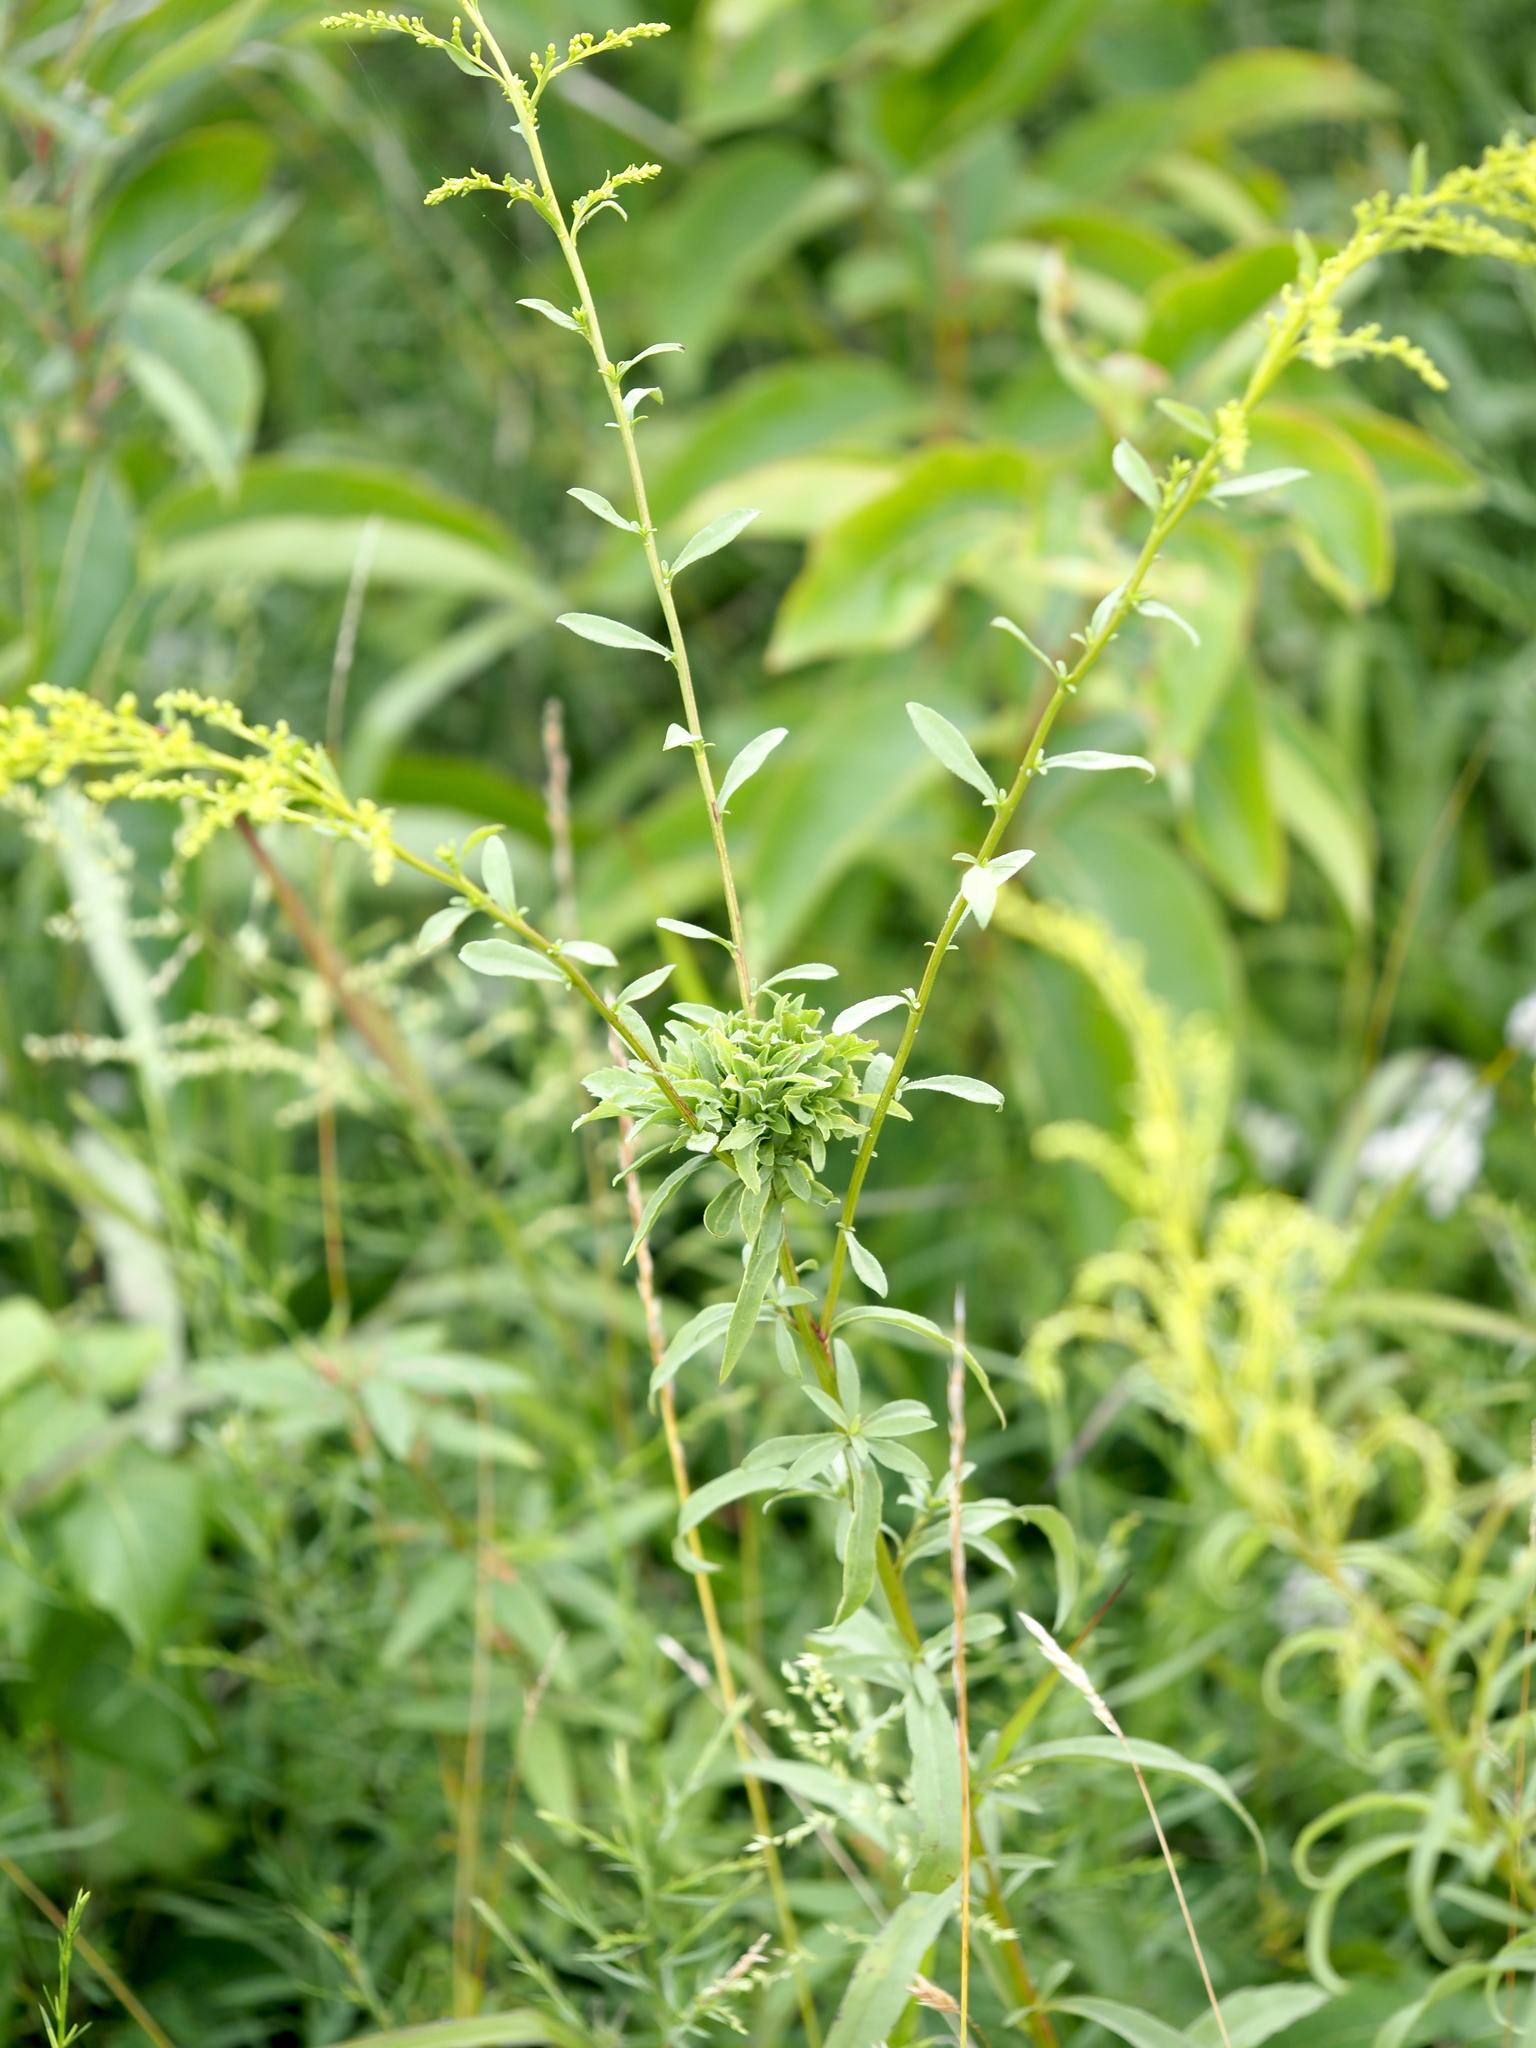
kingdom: Animalia
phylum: Arthropoda
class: Insecta
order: Diptera
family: Cecidomyiidae
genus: Asphondylia
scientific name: Asphondylia monacha
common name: Nun midge
